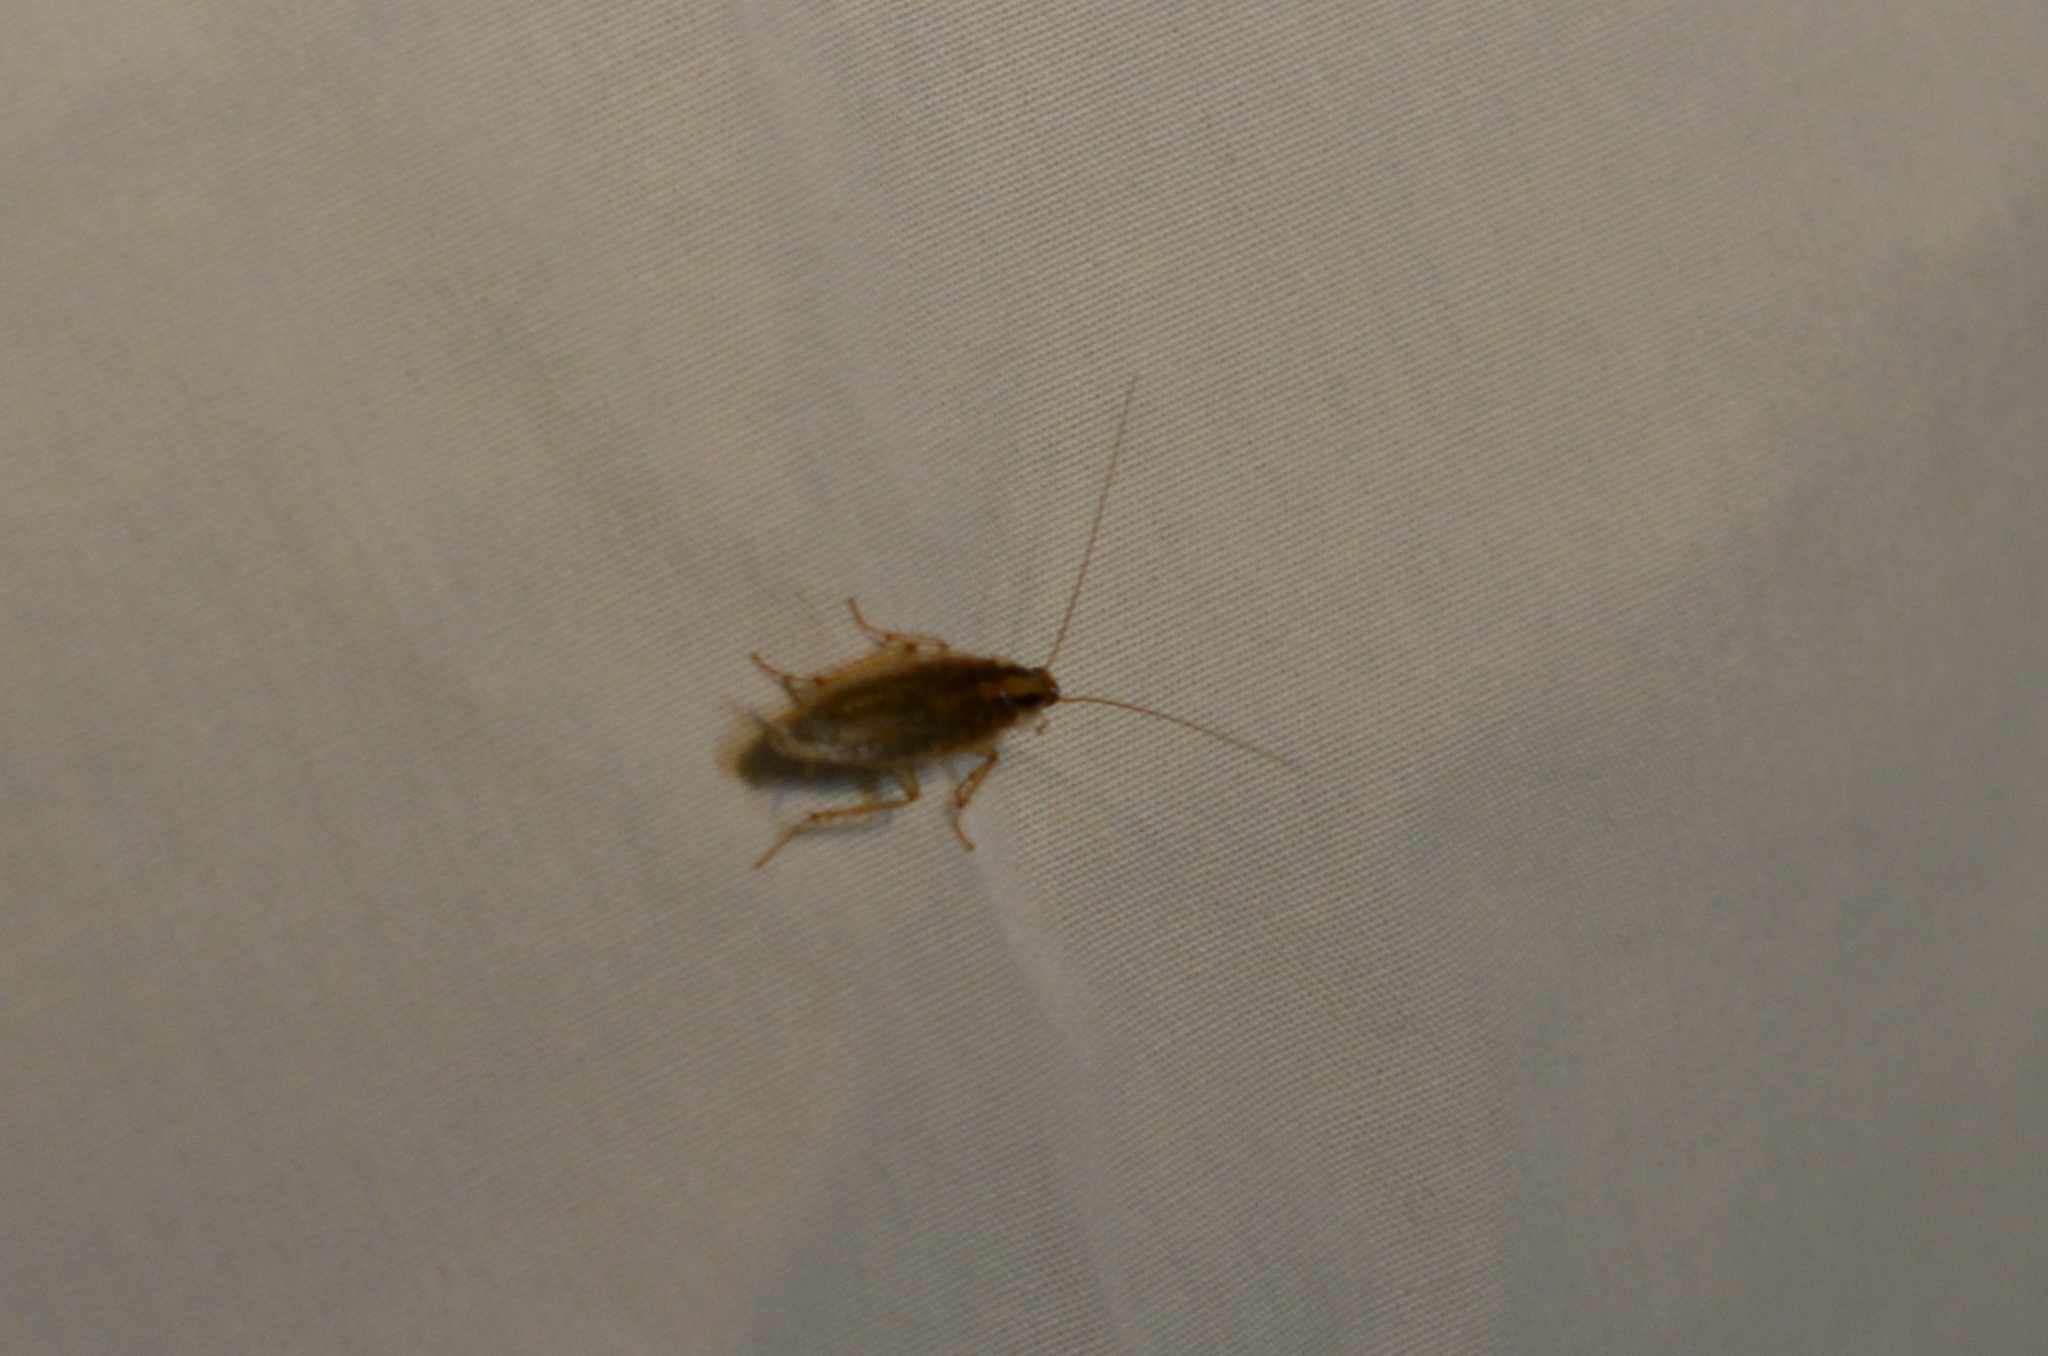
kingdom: Animalia
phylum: Arthropoda
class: Insecta
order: Blattodea
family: Ectobiidae
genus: Blattella
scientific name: Blattella germanica
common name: German cockroach
